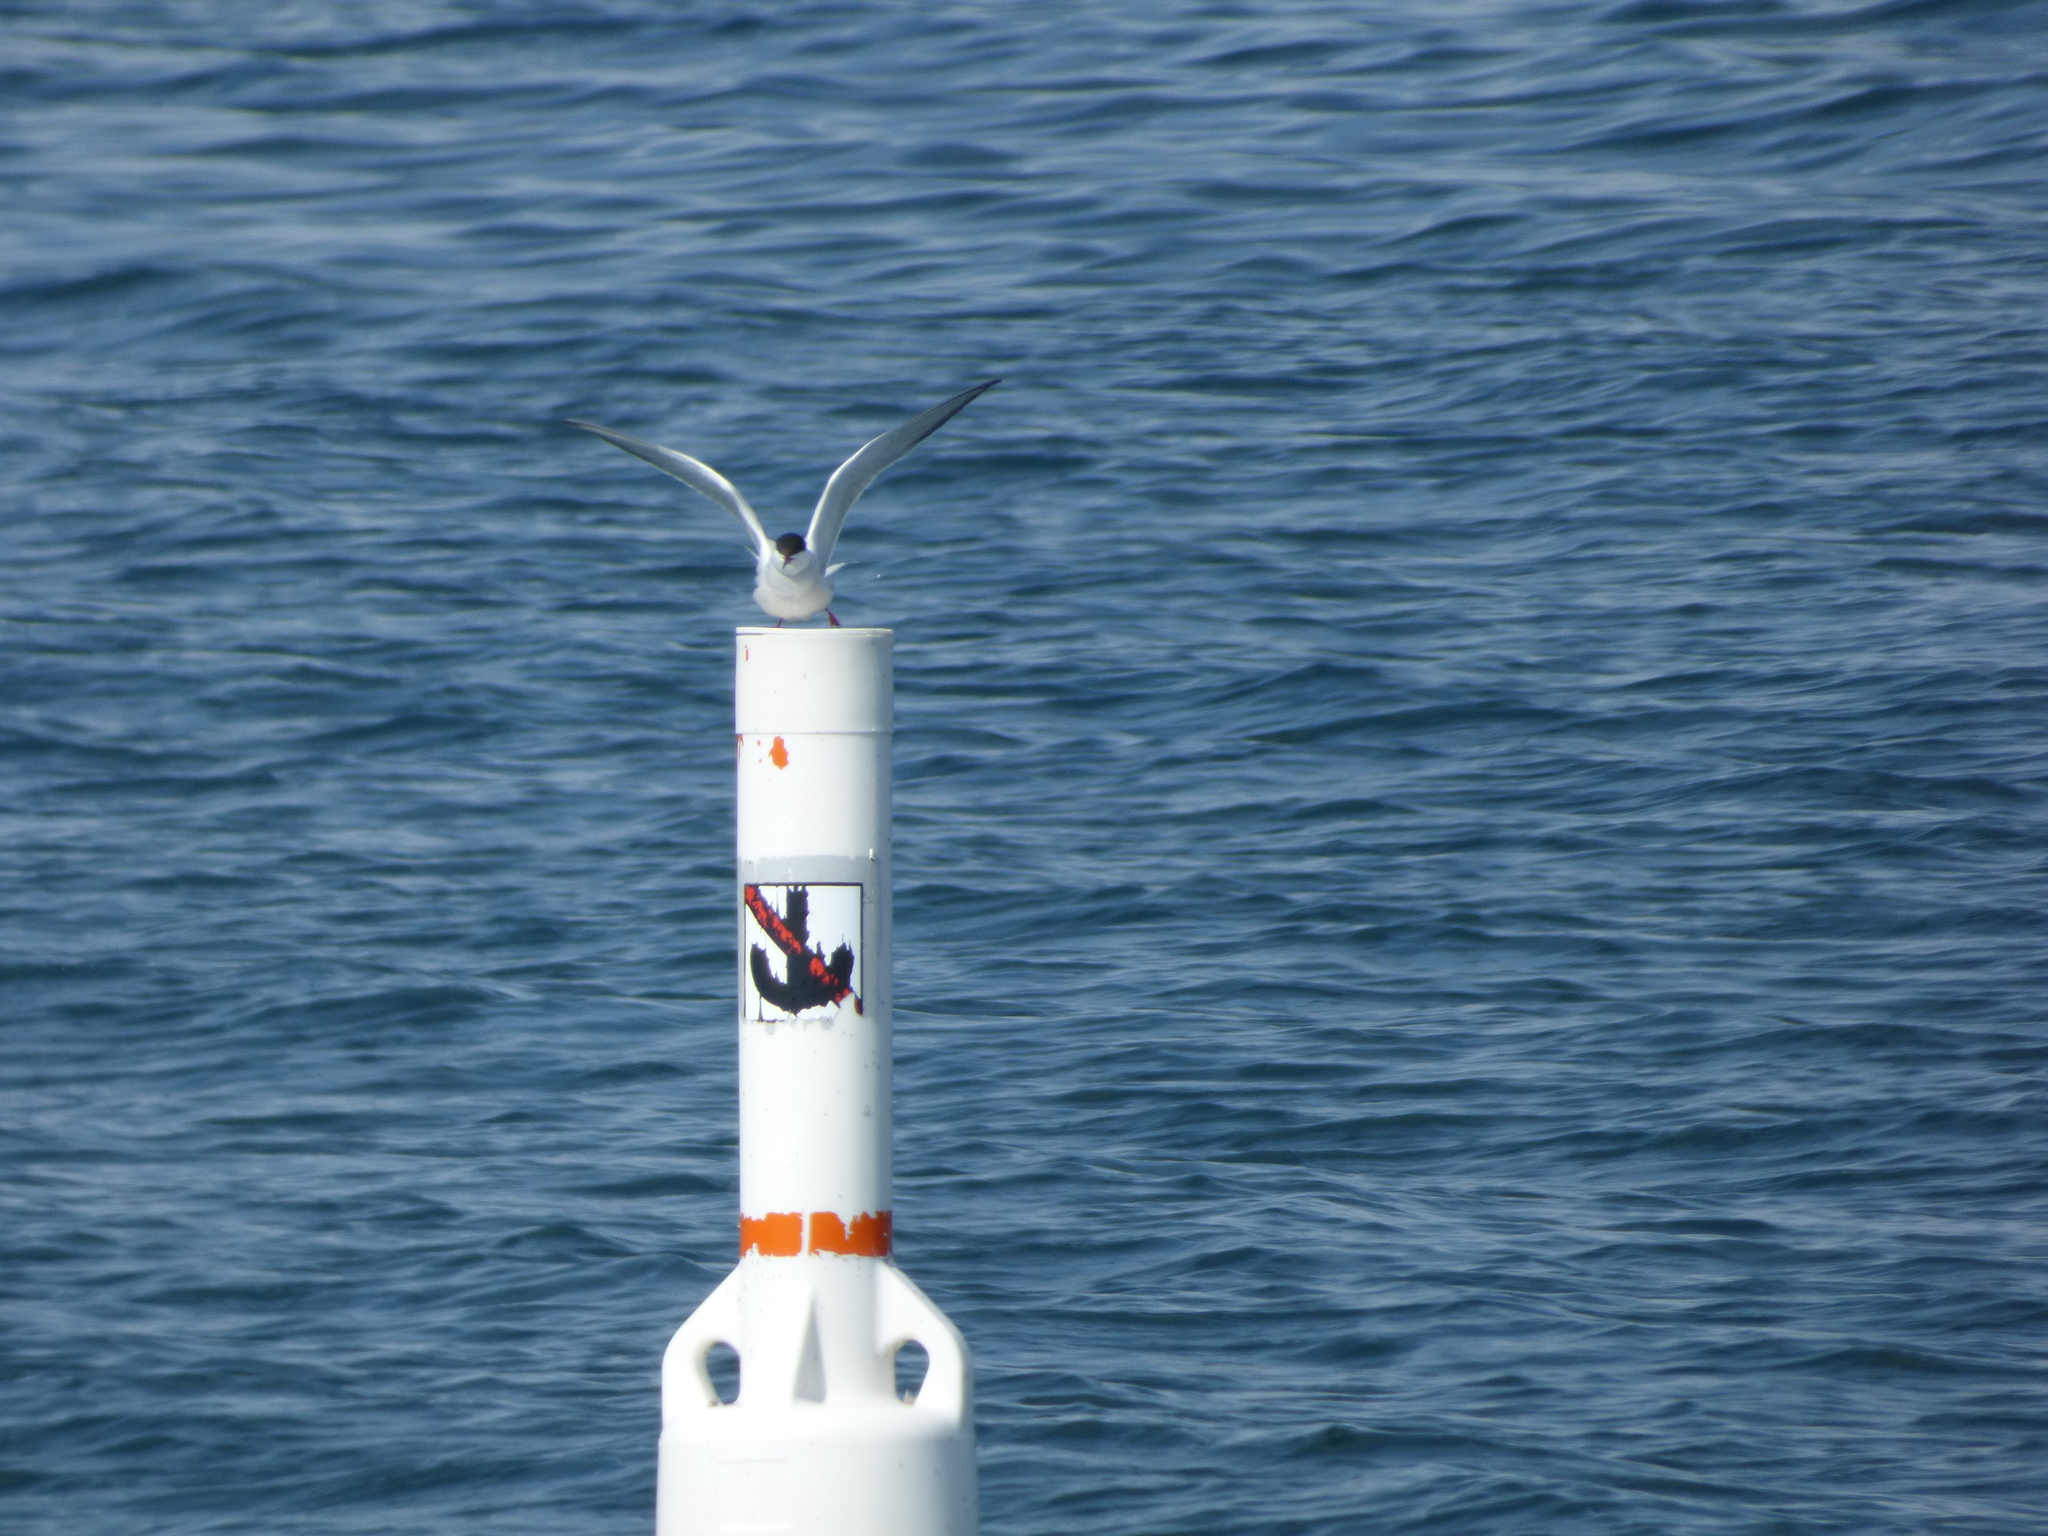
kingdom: Animalia
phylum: Chordata
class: Aves
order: Charadriiformes
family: Laridae
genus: Sterna
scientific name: Sterna hirundo
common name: Common tern
